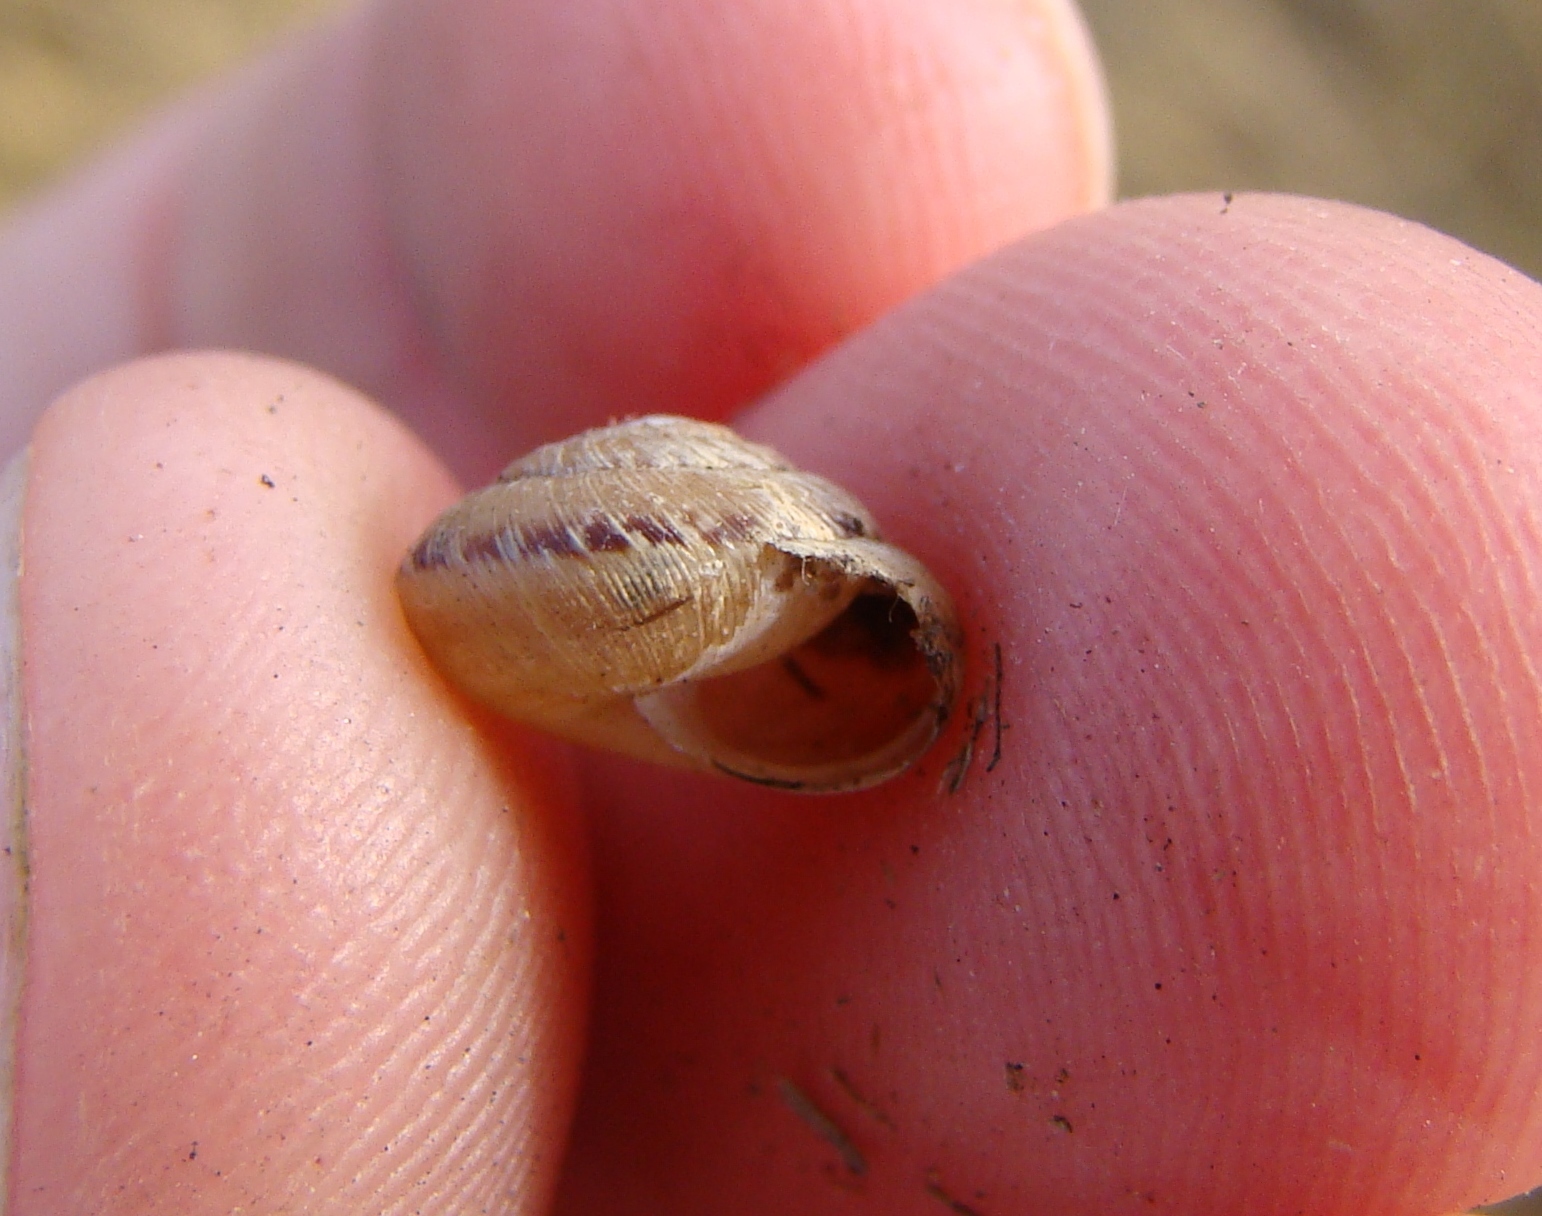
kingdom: Animalia
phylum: Mollusca
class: Gastropoda
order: Stylommatophora
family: Geomitridae
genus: Xeroplexa
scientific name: Xeroplexa intersecta
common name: Wrinkled snail
